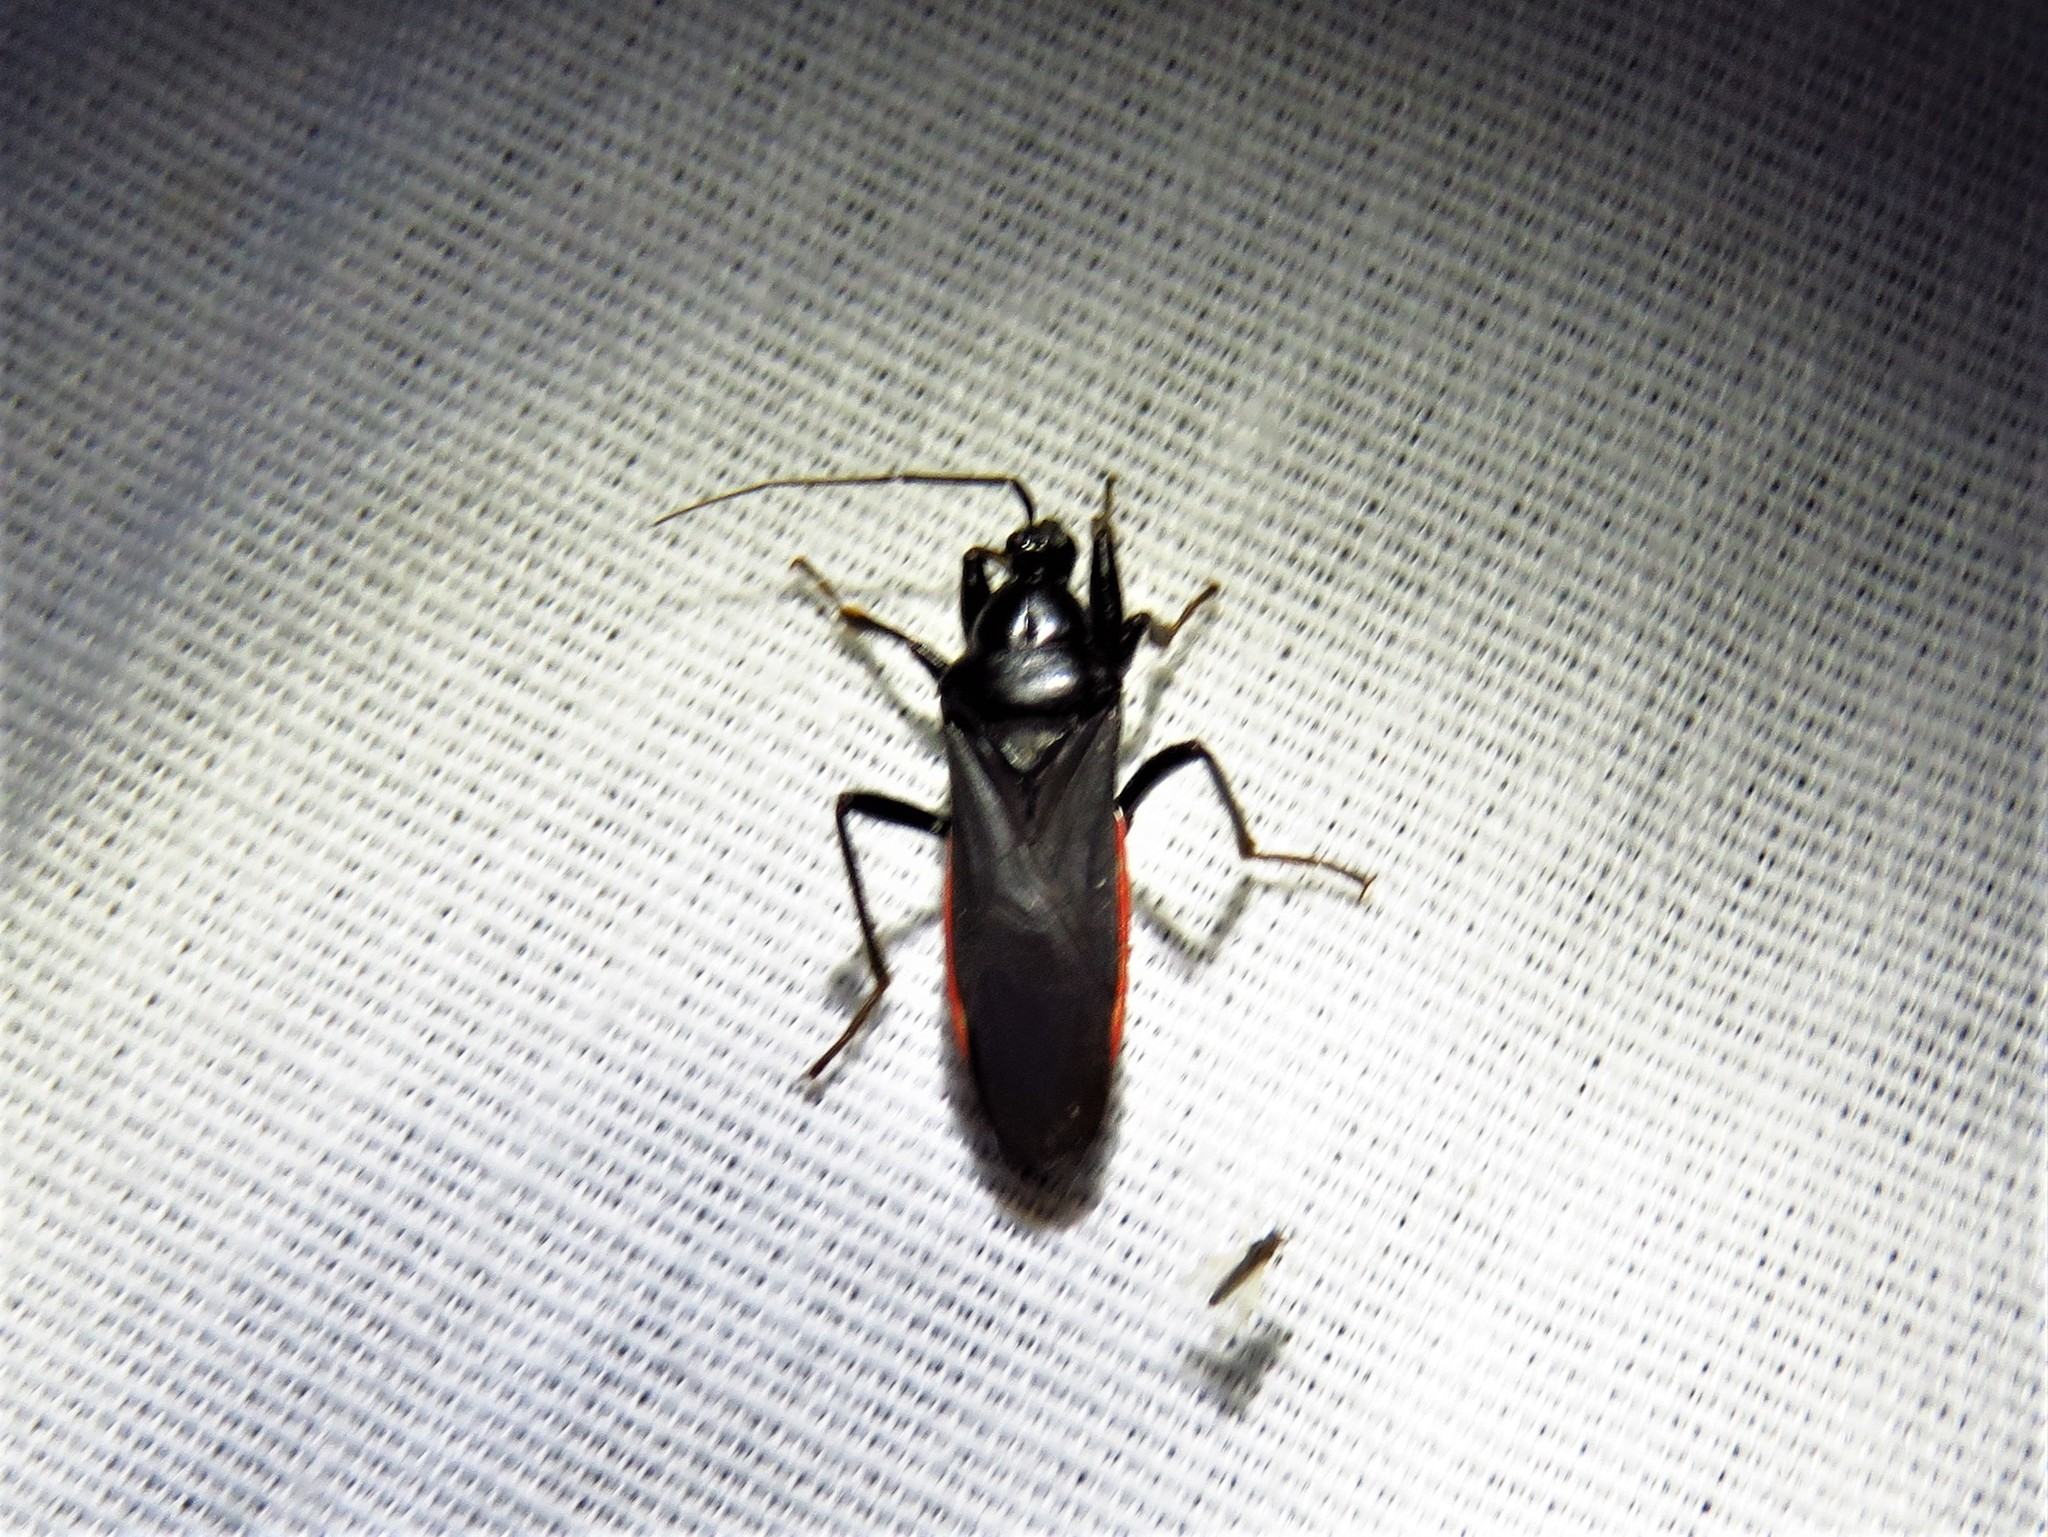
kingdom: Animalia
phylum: Arthropoda
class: Insecta
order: Hemiptera
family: Reduviidae
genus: Melanolestes
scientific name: Melanolestes picipes
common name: Assassin bug
